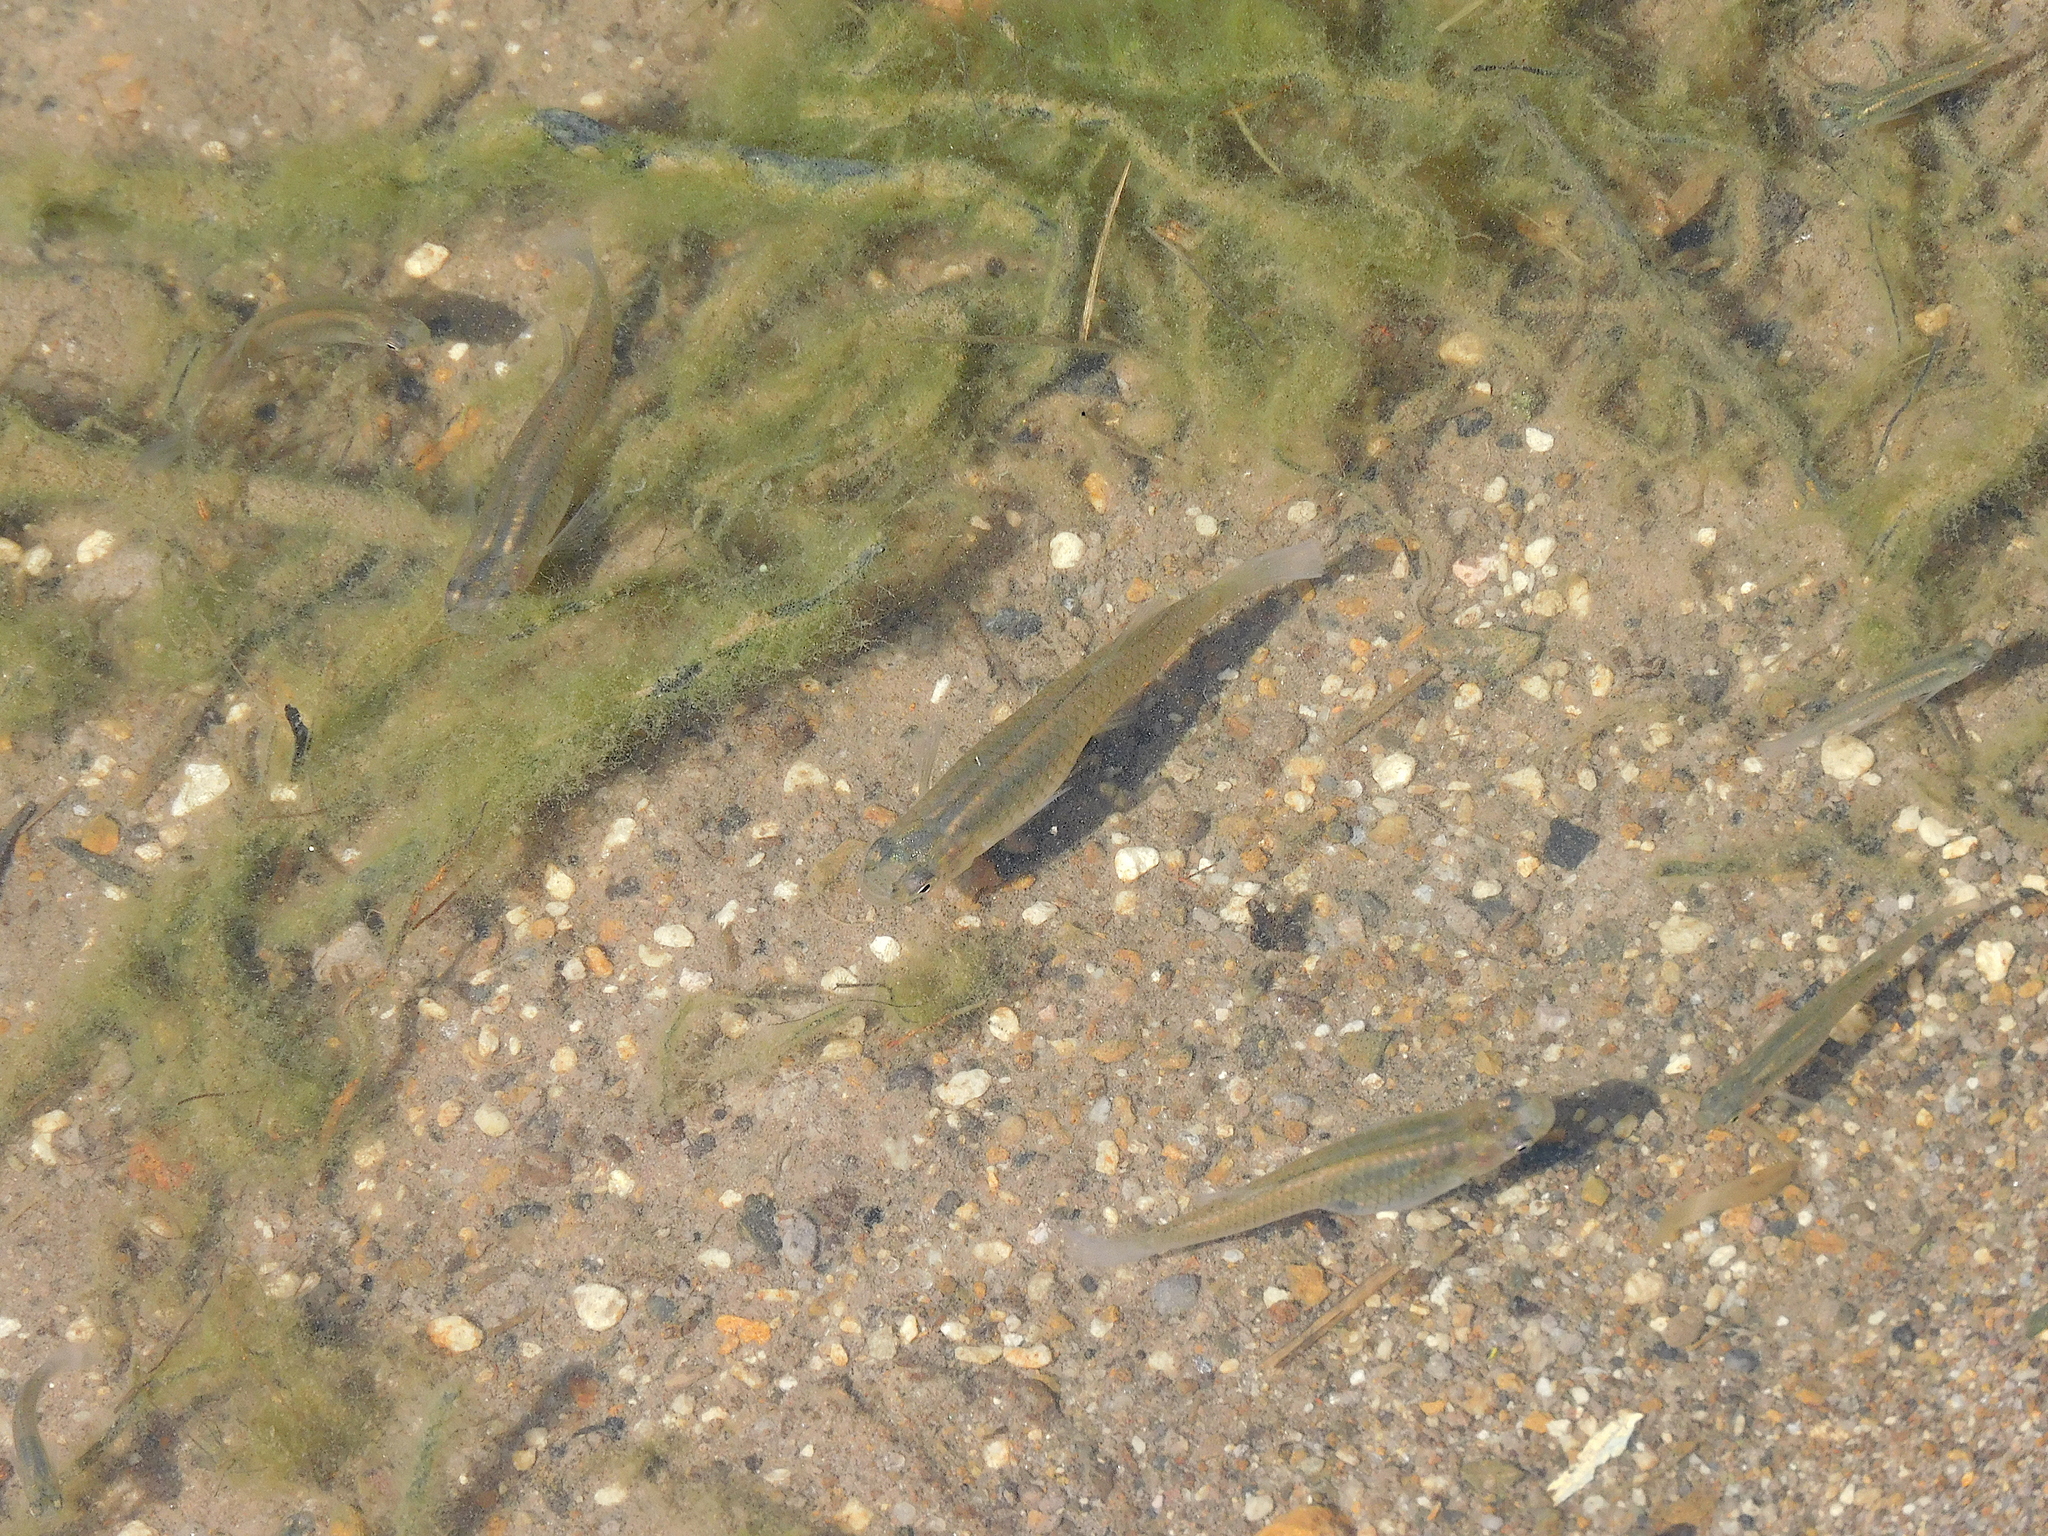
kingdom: Animalia
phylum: Chordata
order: Cyprinodontiformes
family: Poeciliidae
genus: Gambusia
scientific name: Gambusia affinis
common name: Mosquitofish
